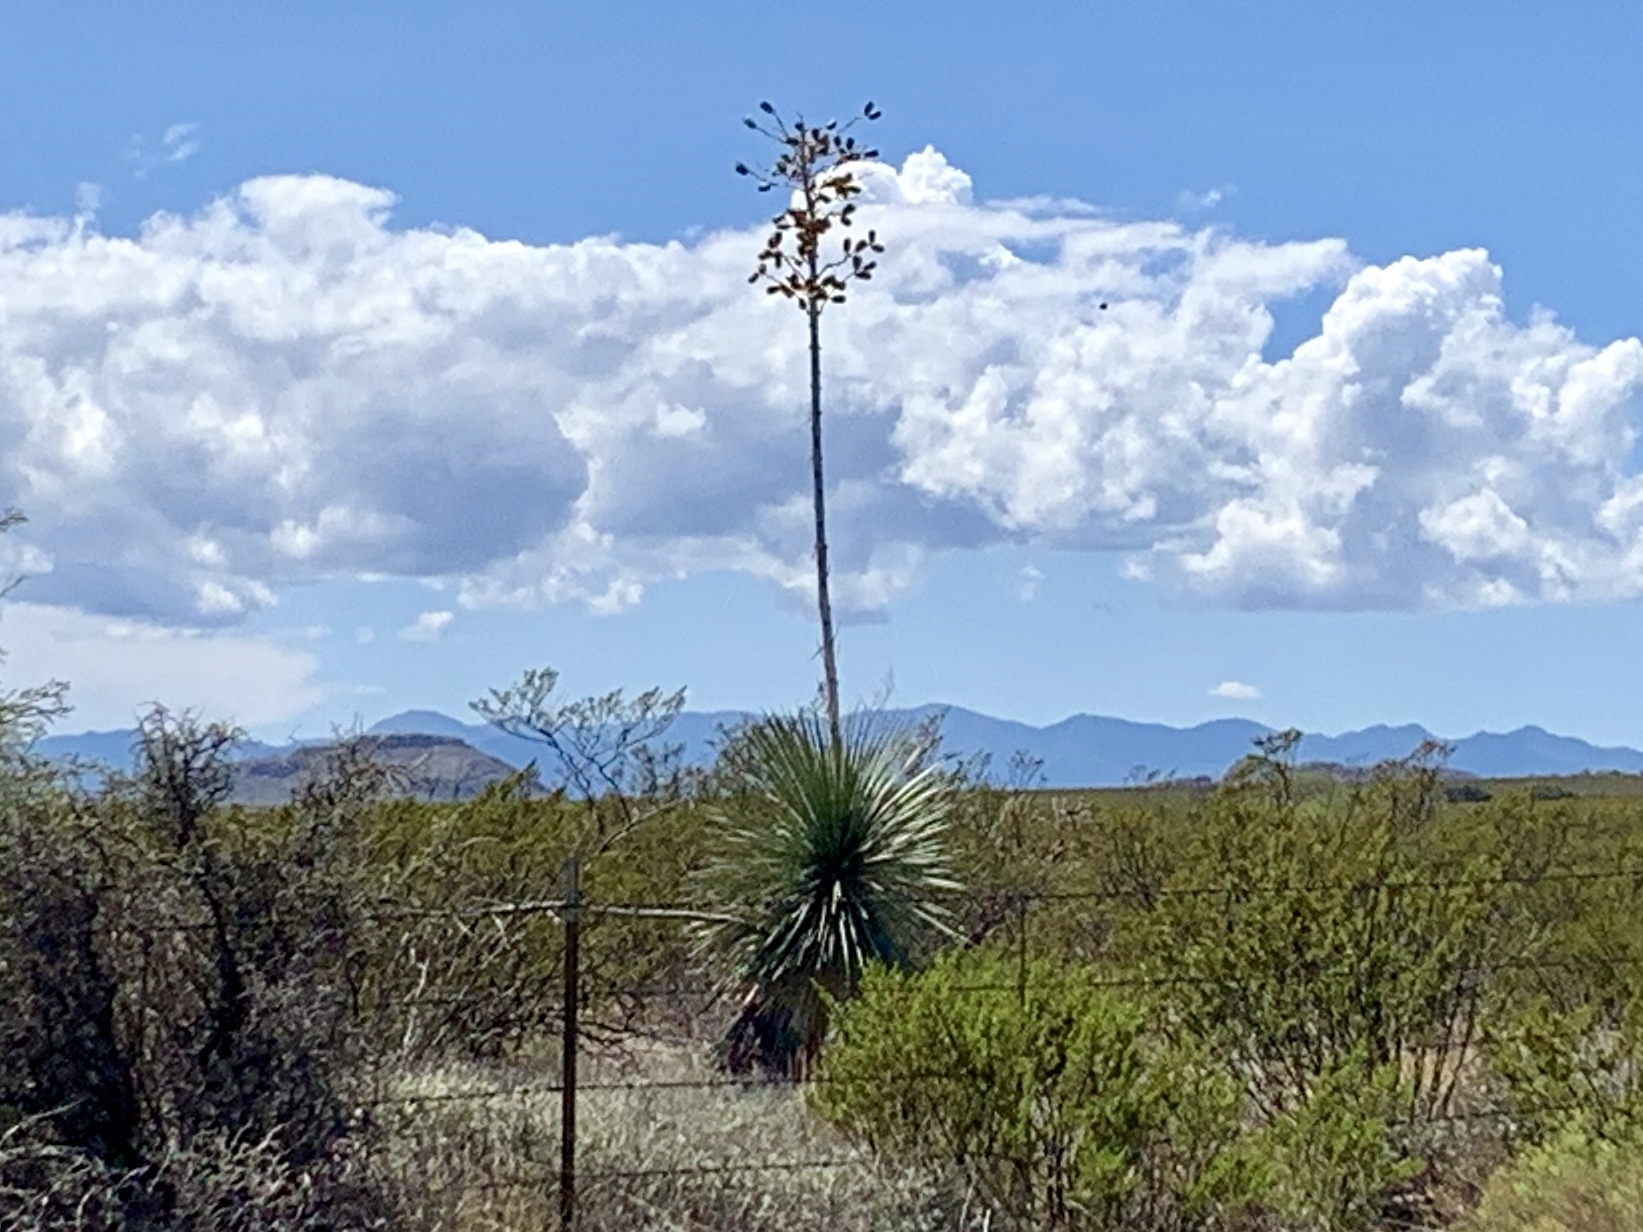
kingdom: Plantae
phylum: Tracheophyta
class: Liliopsida
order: Asparagales
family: Asparagaceae
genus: Yucca
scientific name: Yucca elata
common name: Palmella
